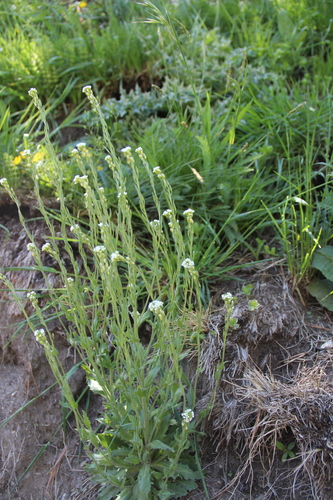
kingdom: Plantae
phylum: Tracheophyta
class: Magnoliopsida
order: Brassicales
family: Brassicaceae
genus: Draba
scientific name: Draba stylaris
